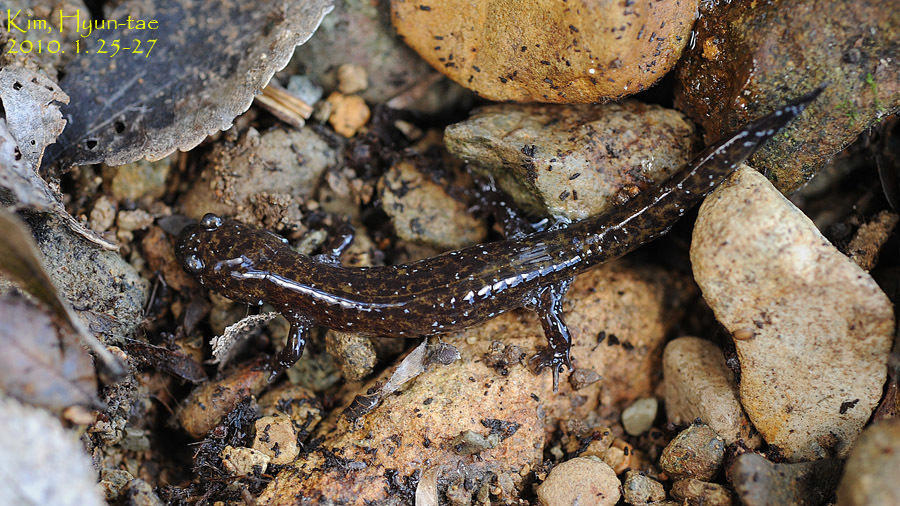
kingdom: Animalia
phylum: Chordata
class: Amphibia
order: Caudata
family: Hynobiidae
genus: Hynobius
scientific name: Hynobius unisacculus
